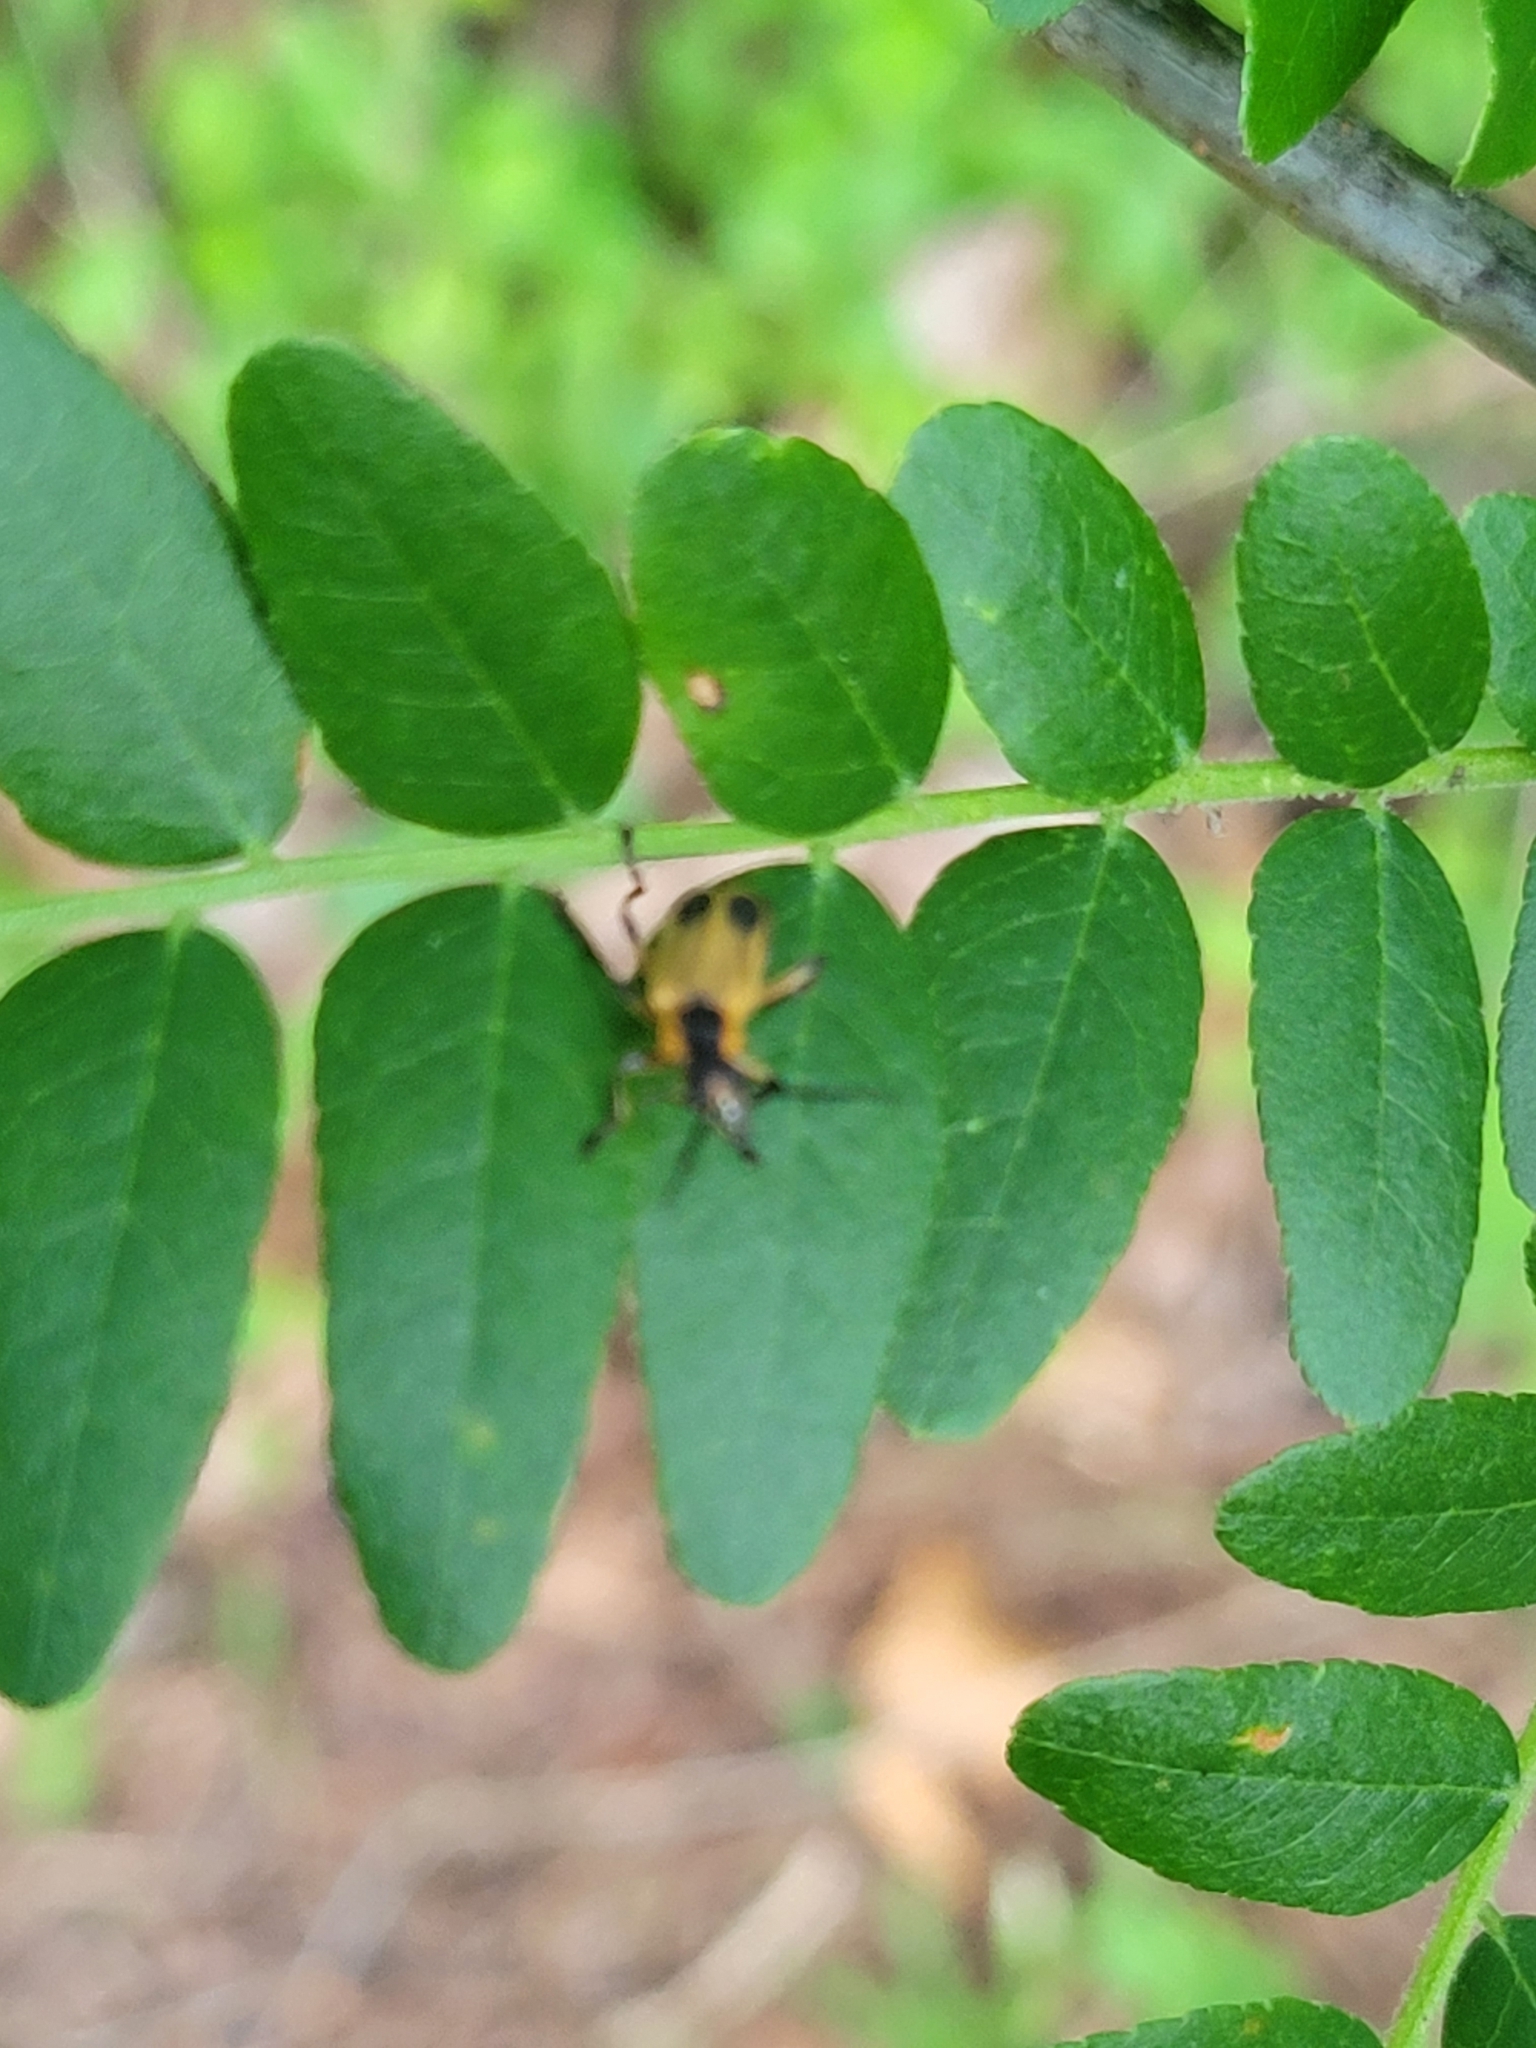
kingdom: Animalia
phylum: Arthropoda
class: Insecta
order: Coleoptera
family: Cantharidae
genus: Chauliognathus
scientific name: Chauliognathus marginatus
